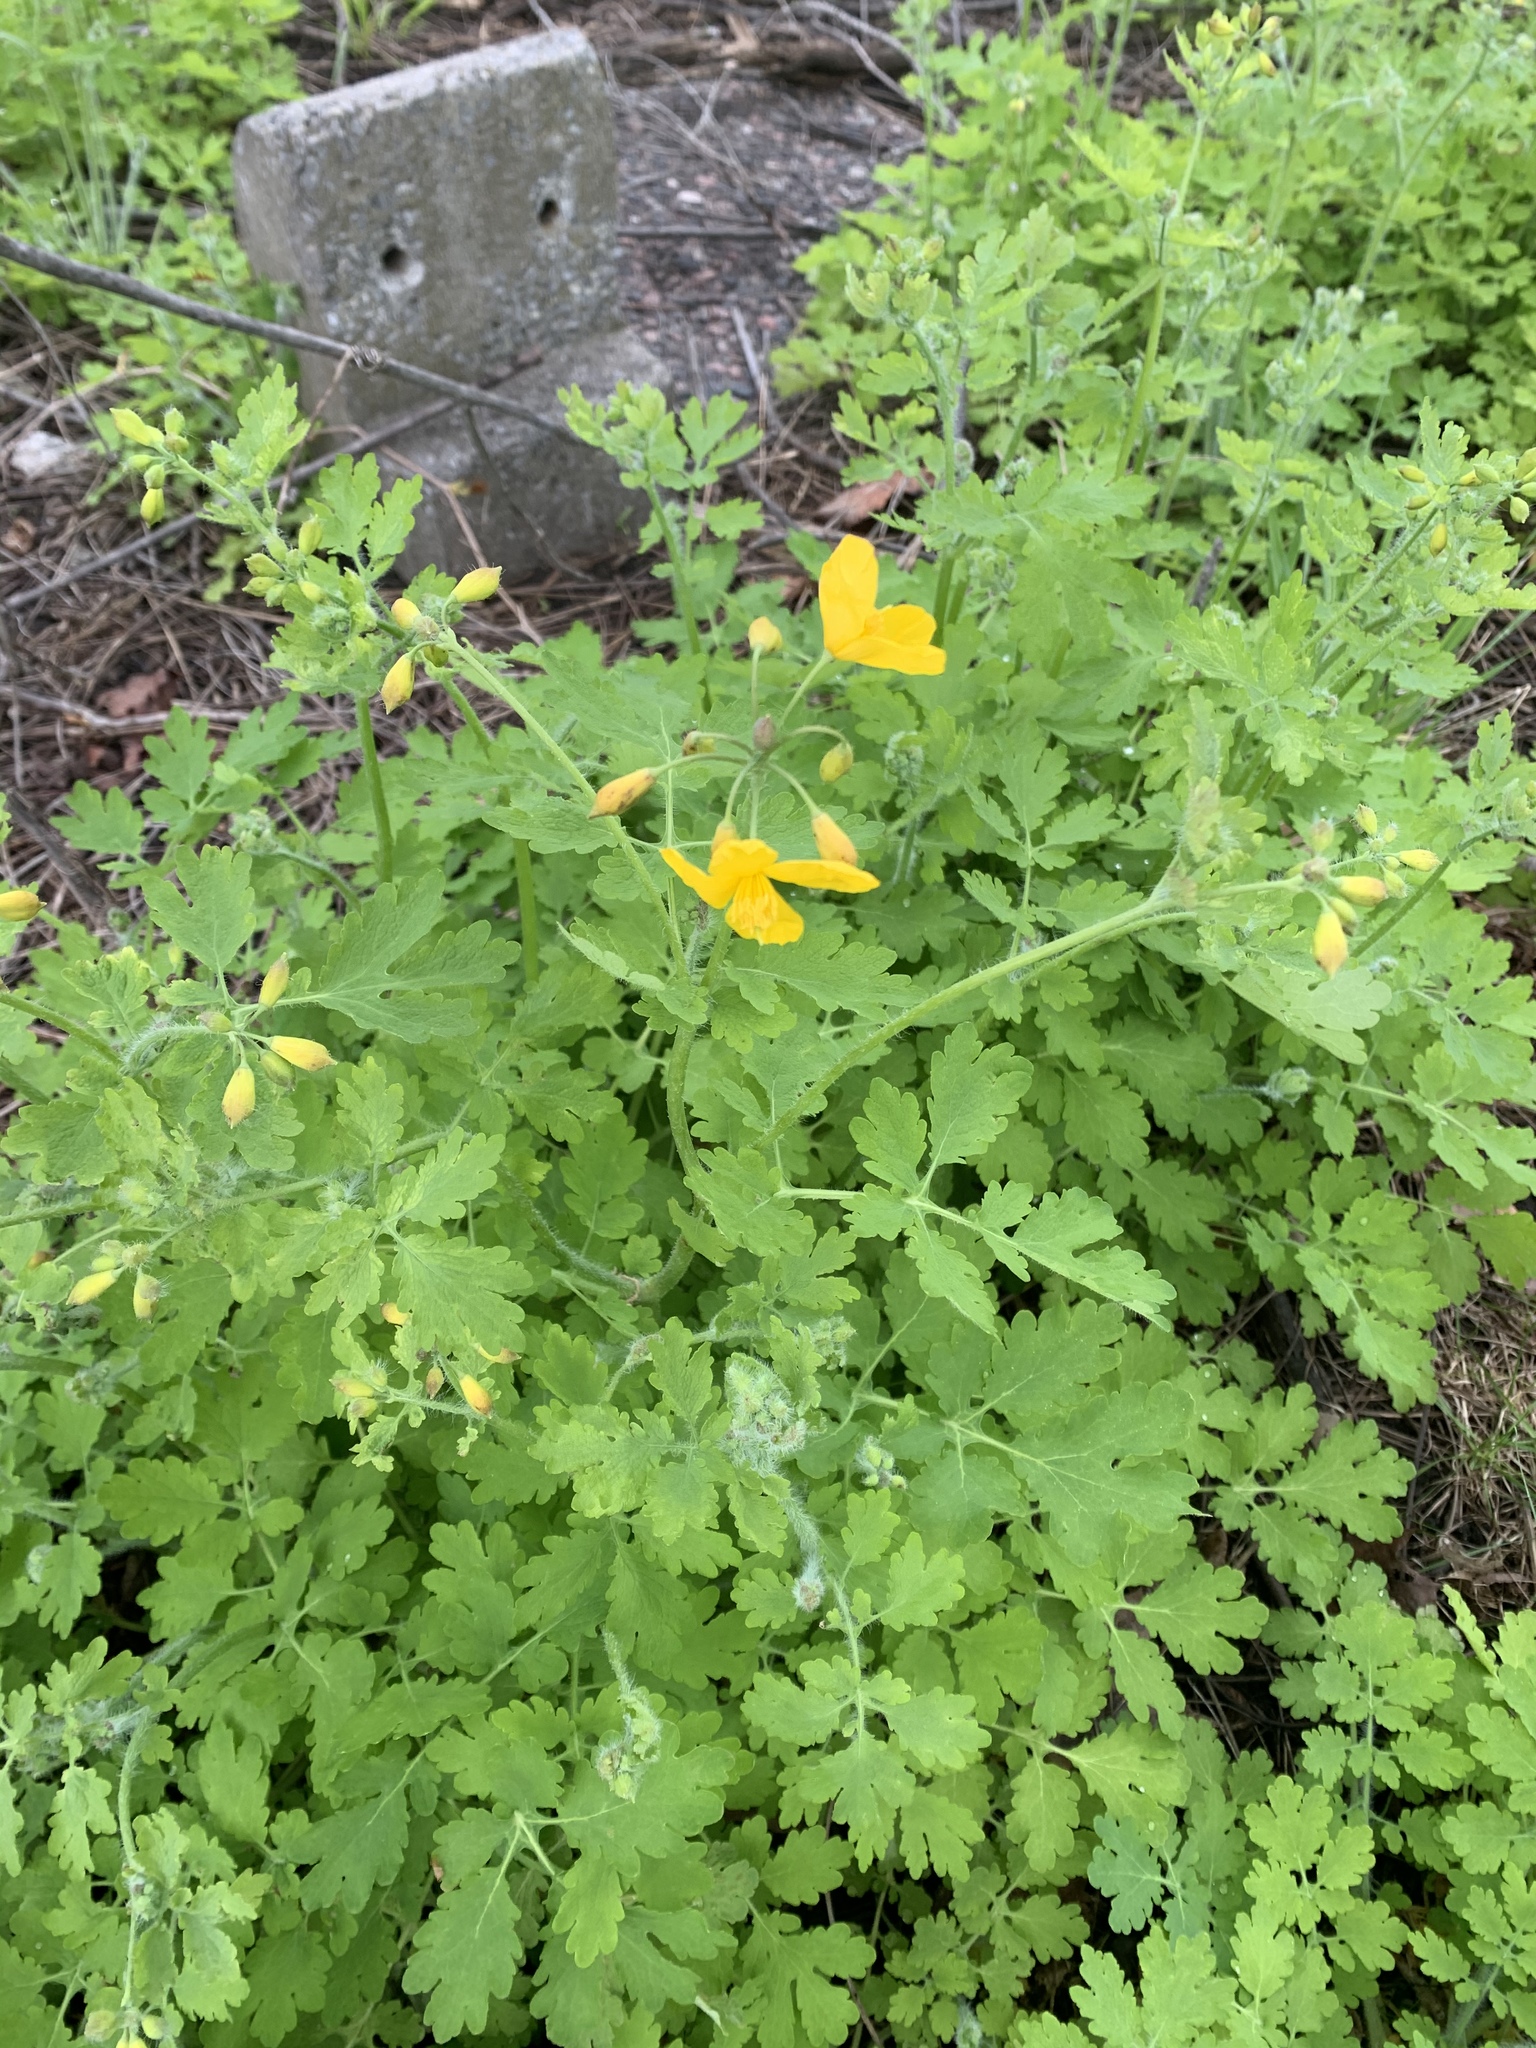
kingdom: Plantae
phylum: Tracheophyta
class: Magnoliopsida
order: Ranunculales
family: Papaveraceae
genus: Chelidonium
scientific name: Chelidonium majus
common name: Greater celandine
